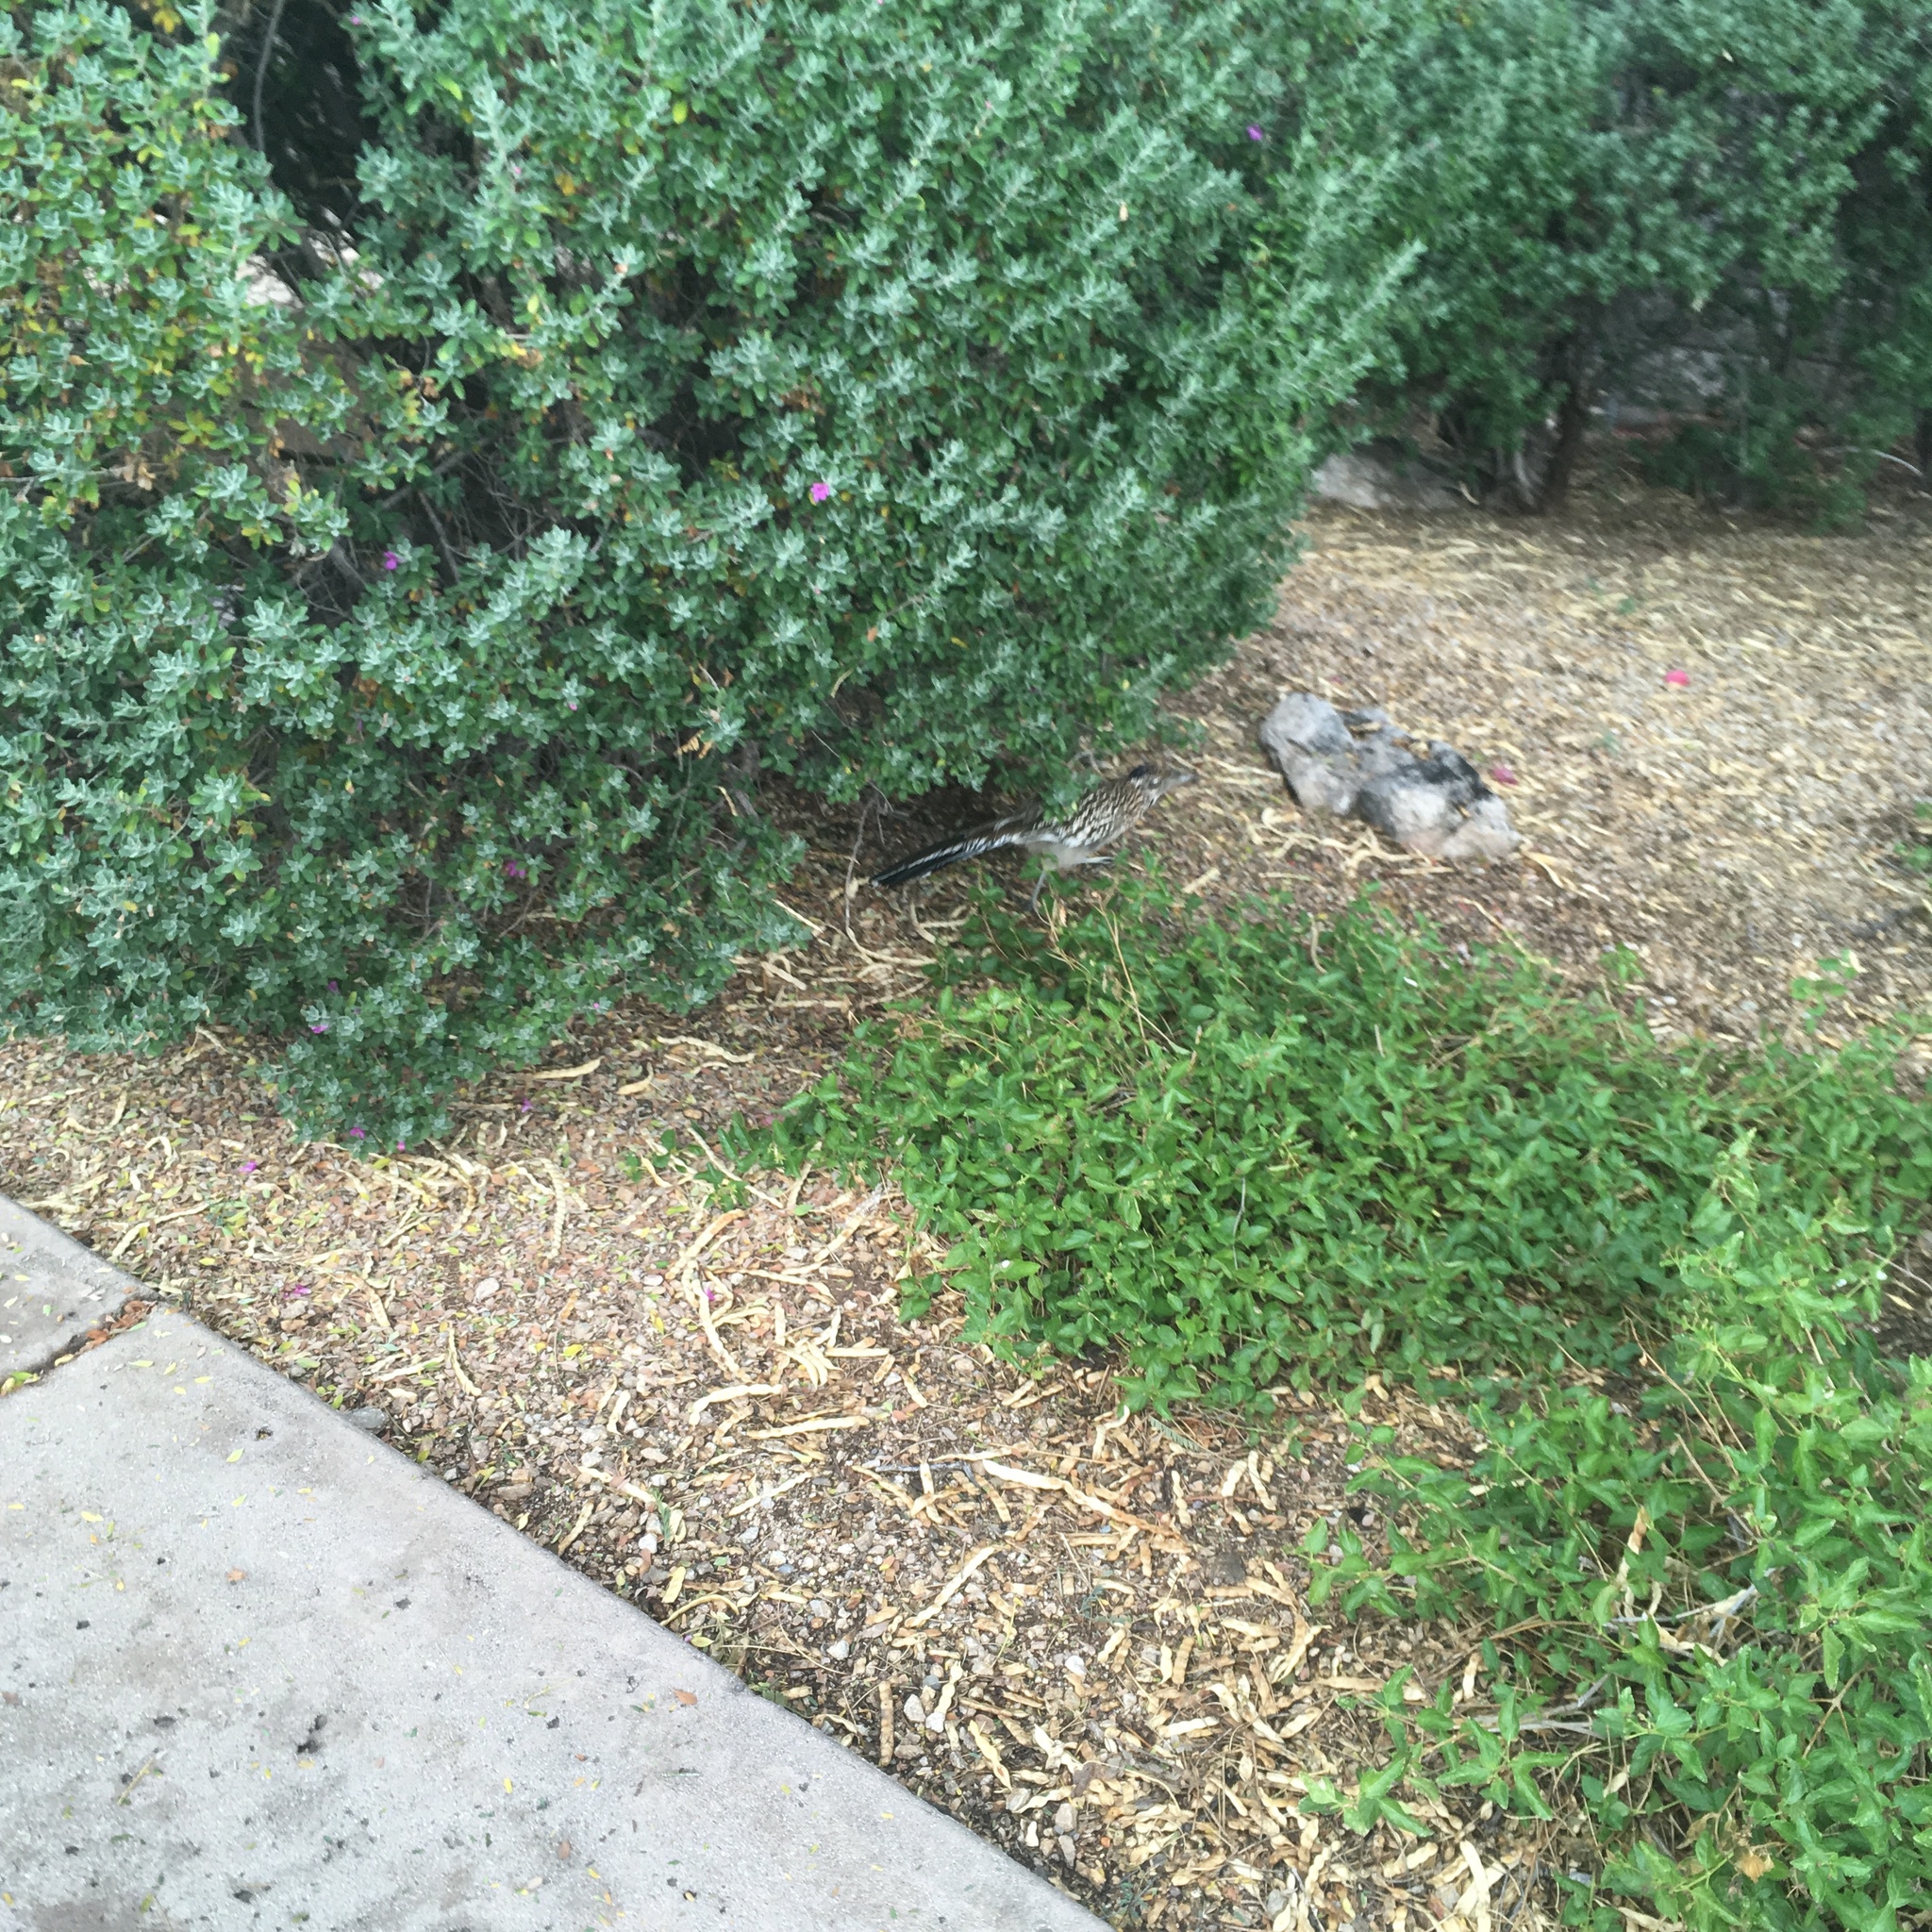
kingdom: Animalia
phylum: Chordata
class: Aves
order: Cuculiformes
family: Cuculidae
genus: Geococcyx
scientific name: Geococcyx californianus
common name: Greater roadrunner
